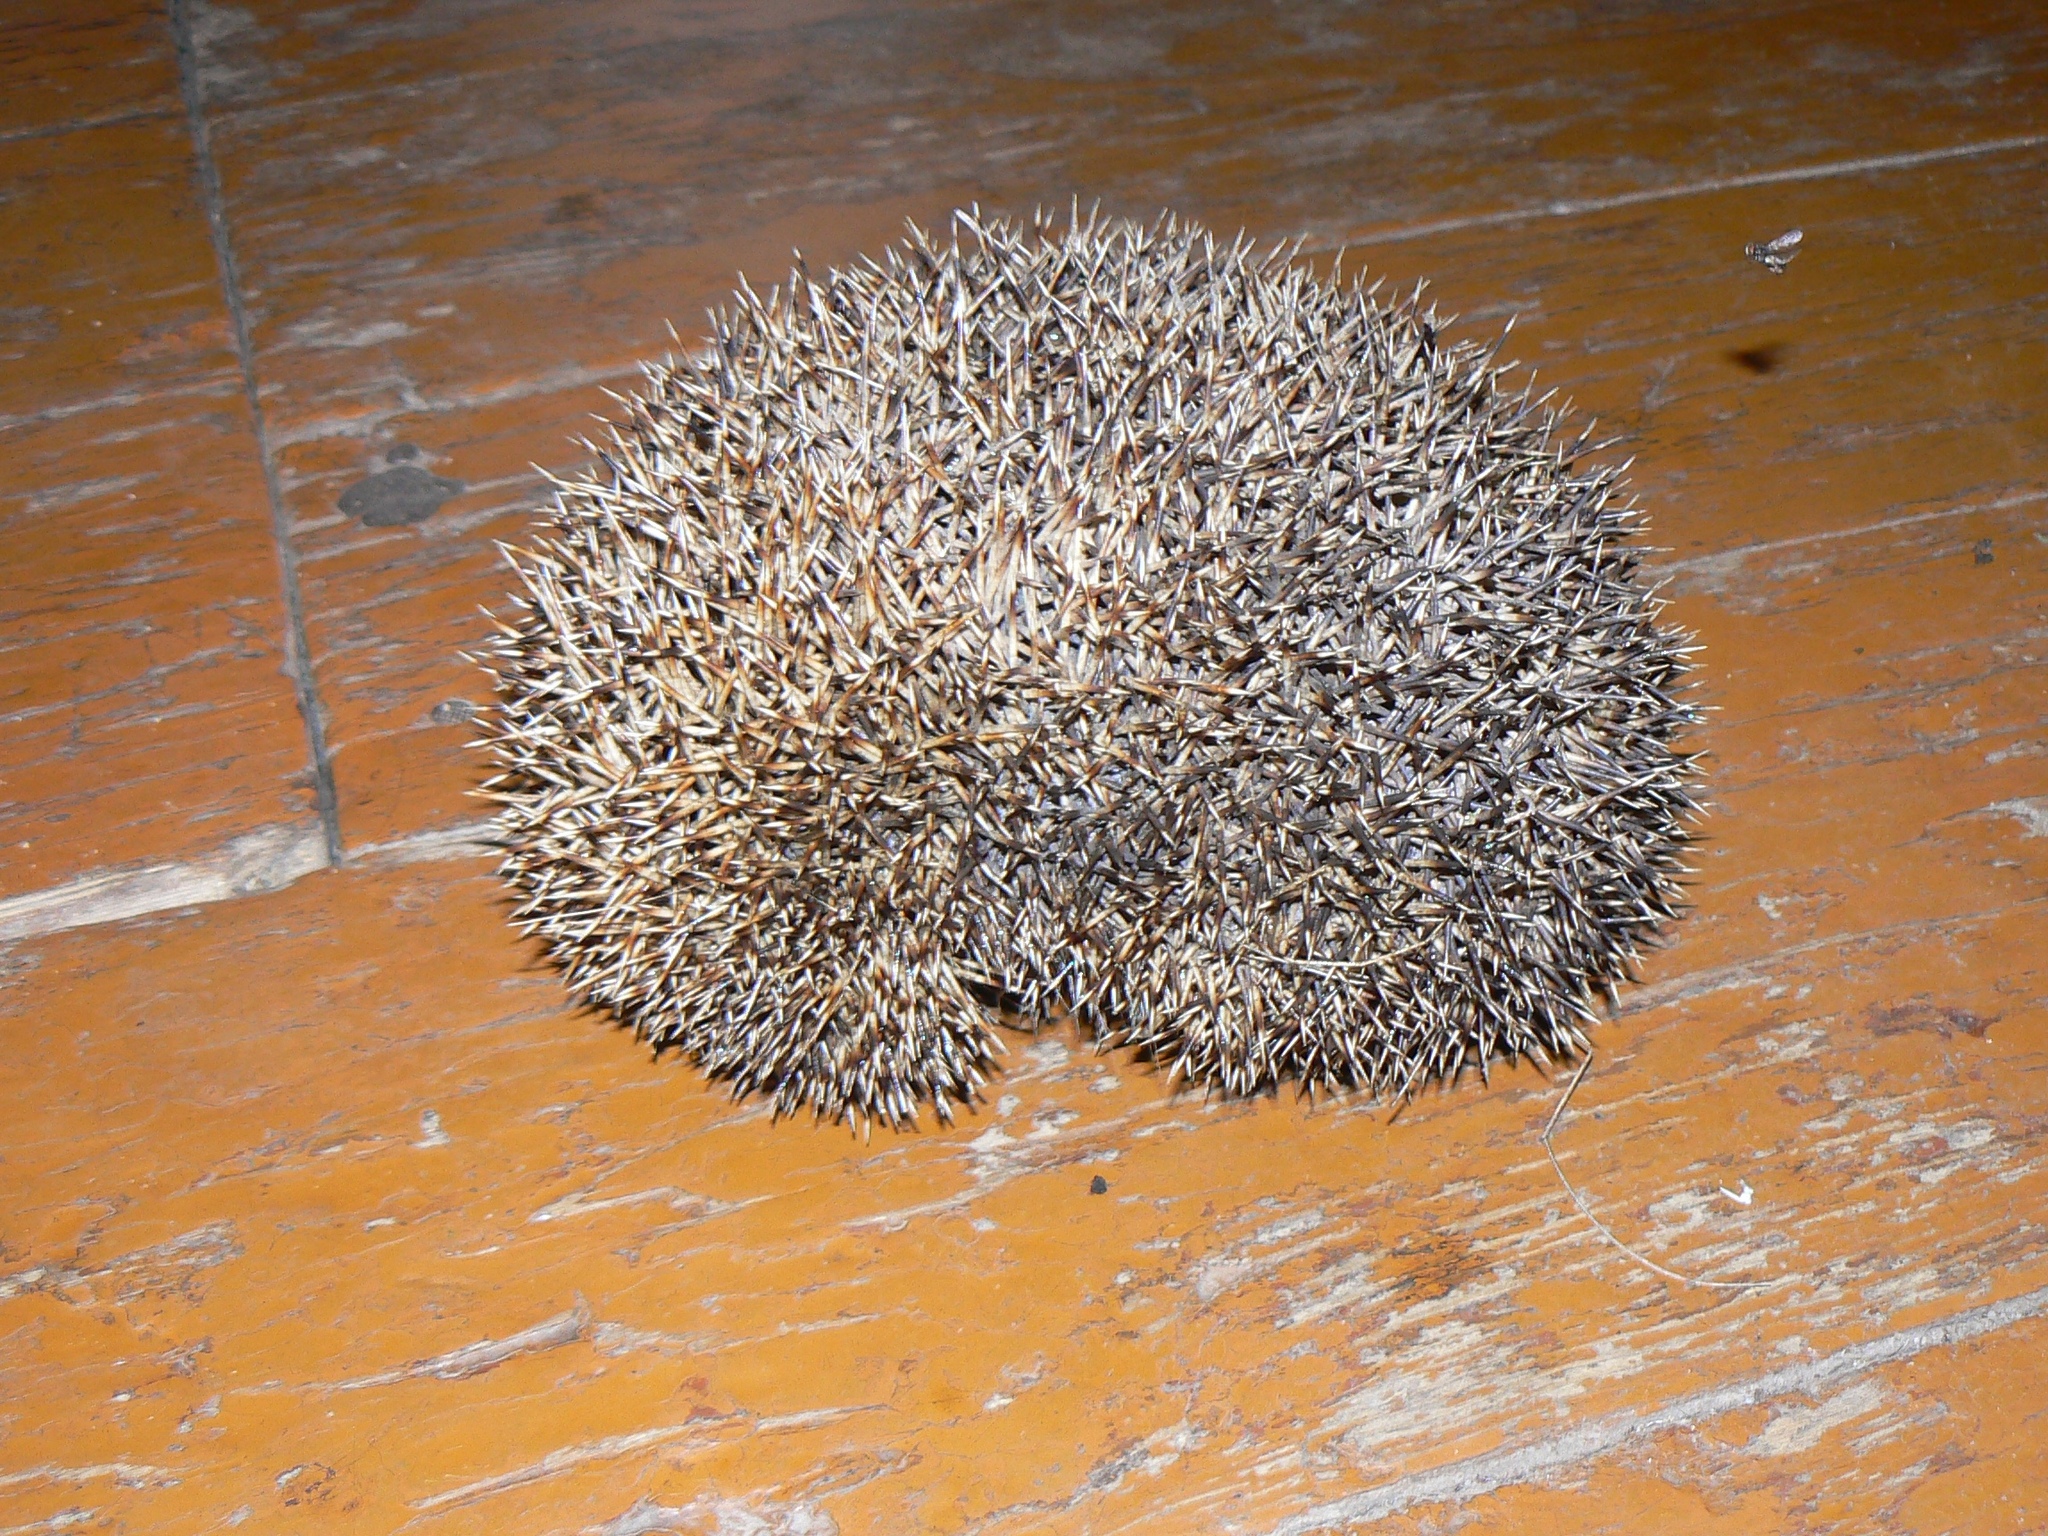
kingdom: Animalia
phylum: Chordata
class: Mammalia
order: Erinaceomorpha
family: Erinaceidae
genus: Erinaceus
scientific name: Erinaceus roumanicus
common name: Northern white-breasted hedgehog
